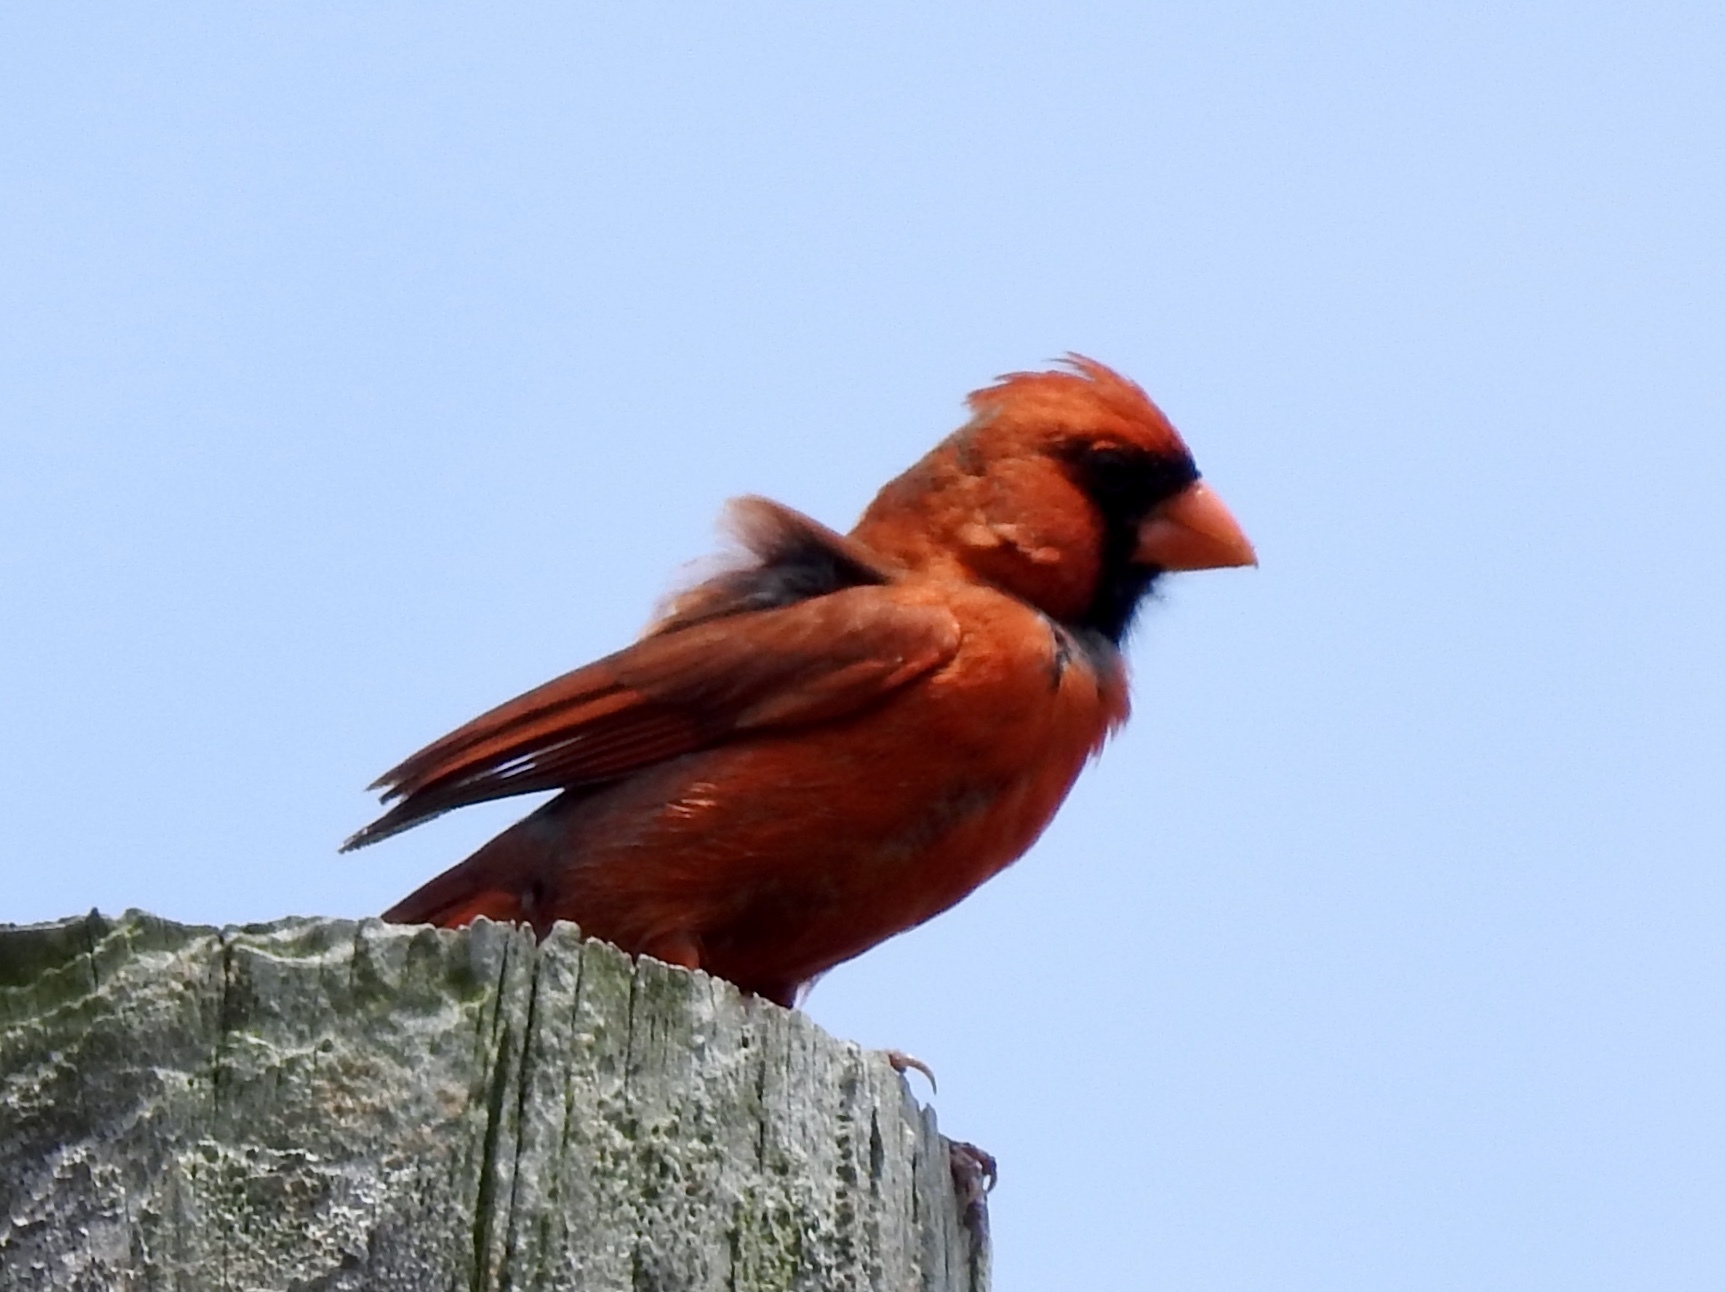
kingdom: Animalia
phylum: Chordata
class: Aves
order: Passeriformes
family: Cardinalidae
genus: Cardinalis
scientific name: Cardinalis cardinalis
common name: Northern cardinal
